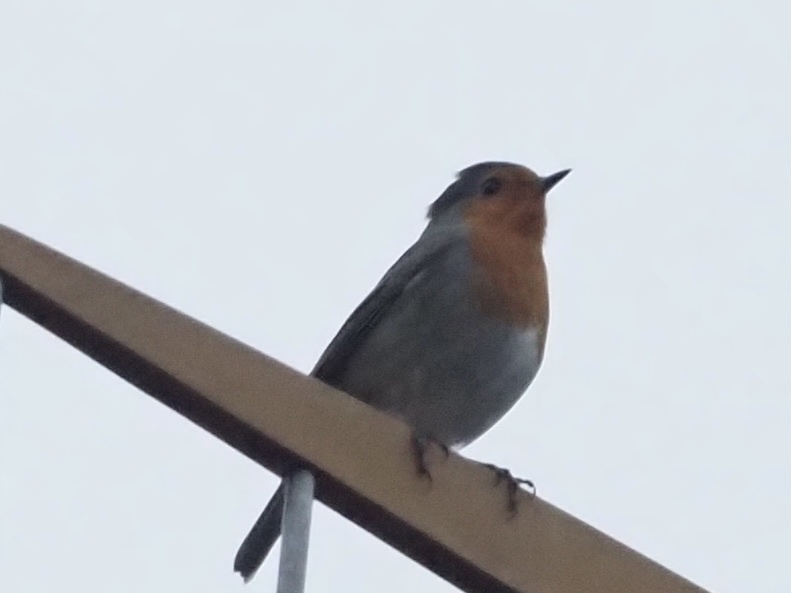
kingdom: Animalia
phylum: Chordata
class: Aves
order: Passeriformes
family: Muscicapidae
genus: Erithacus
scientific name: Erithacus rubecula
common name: European robin
